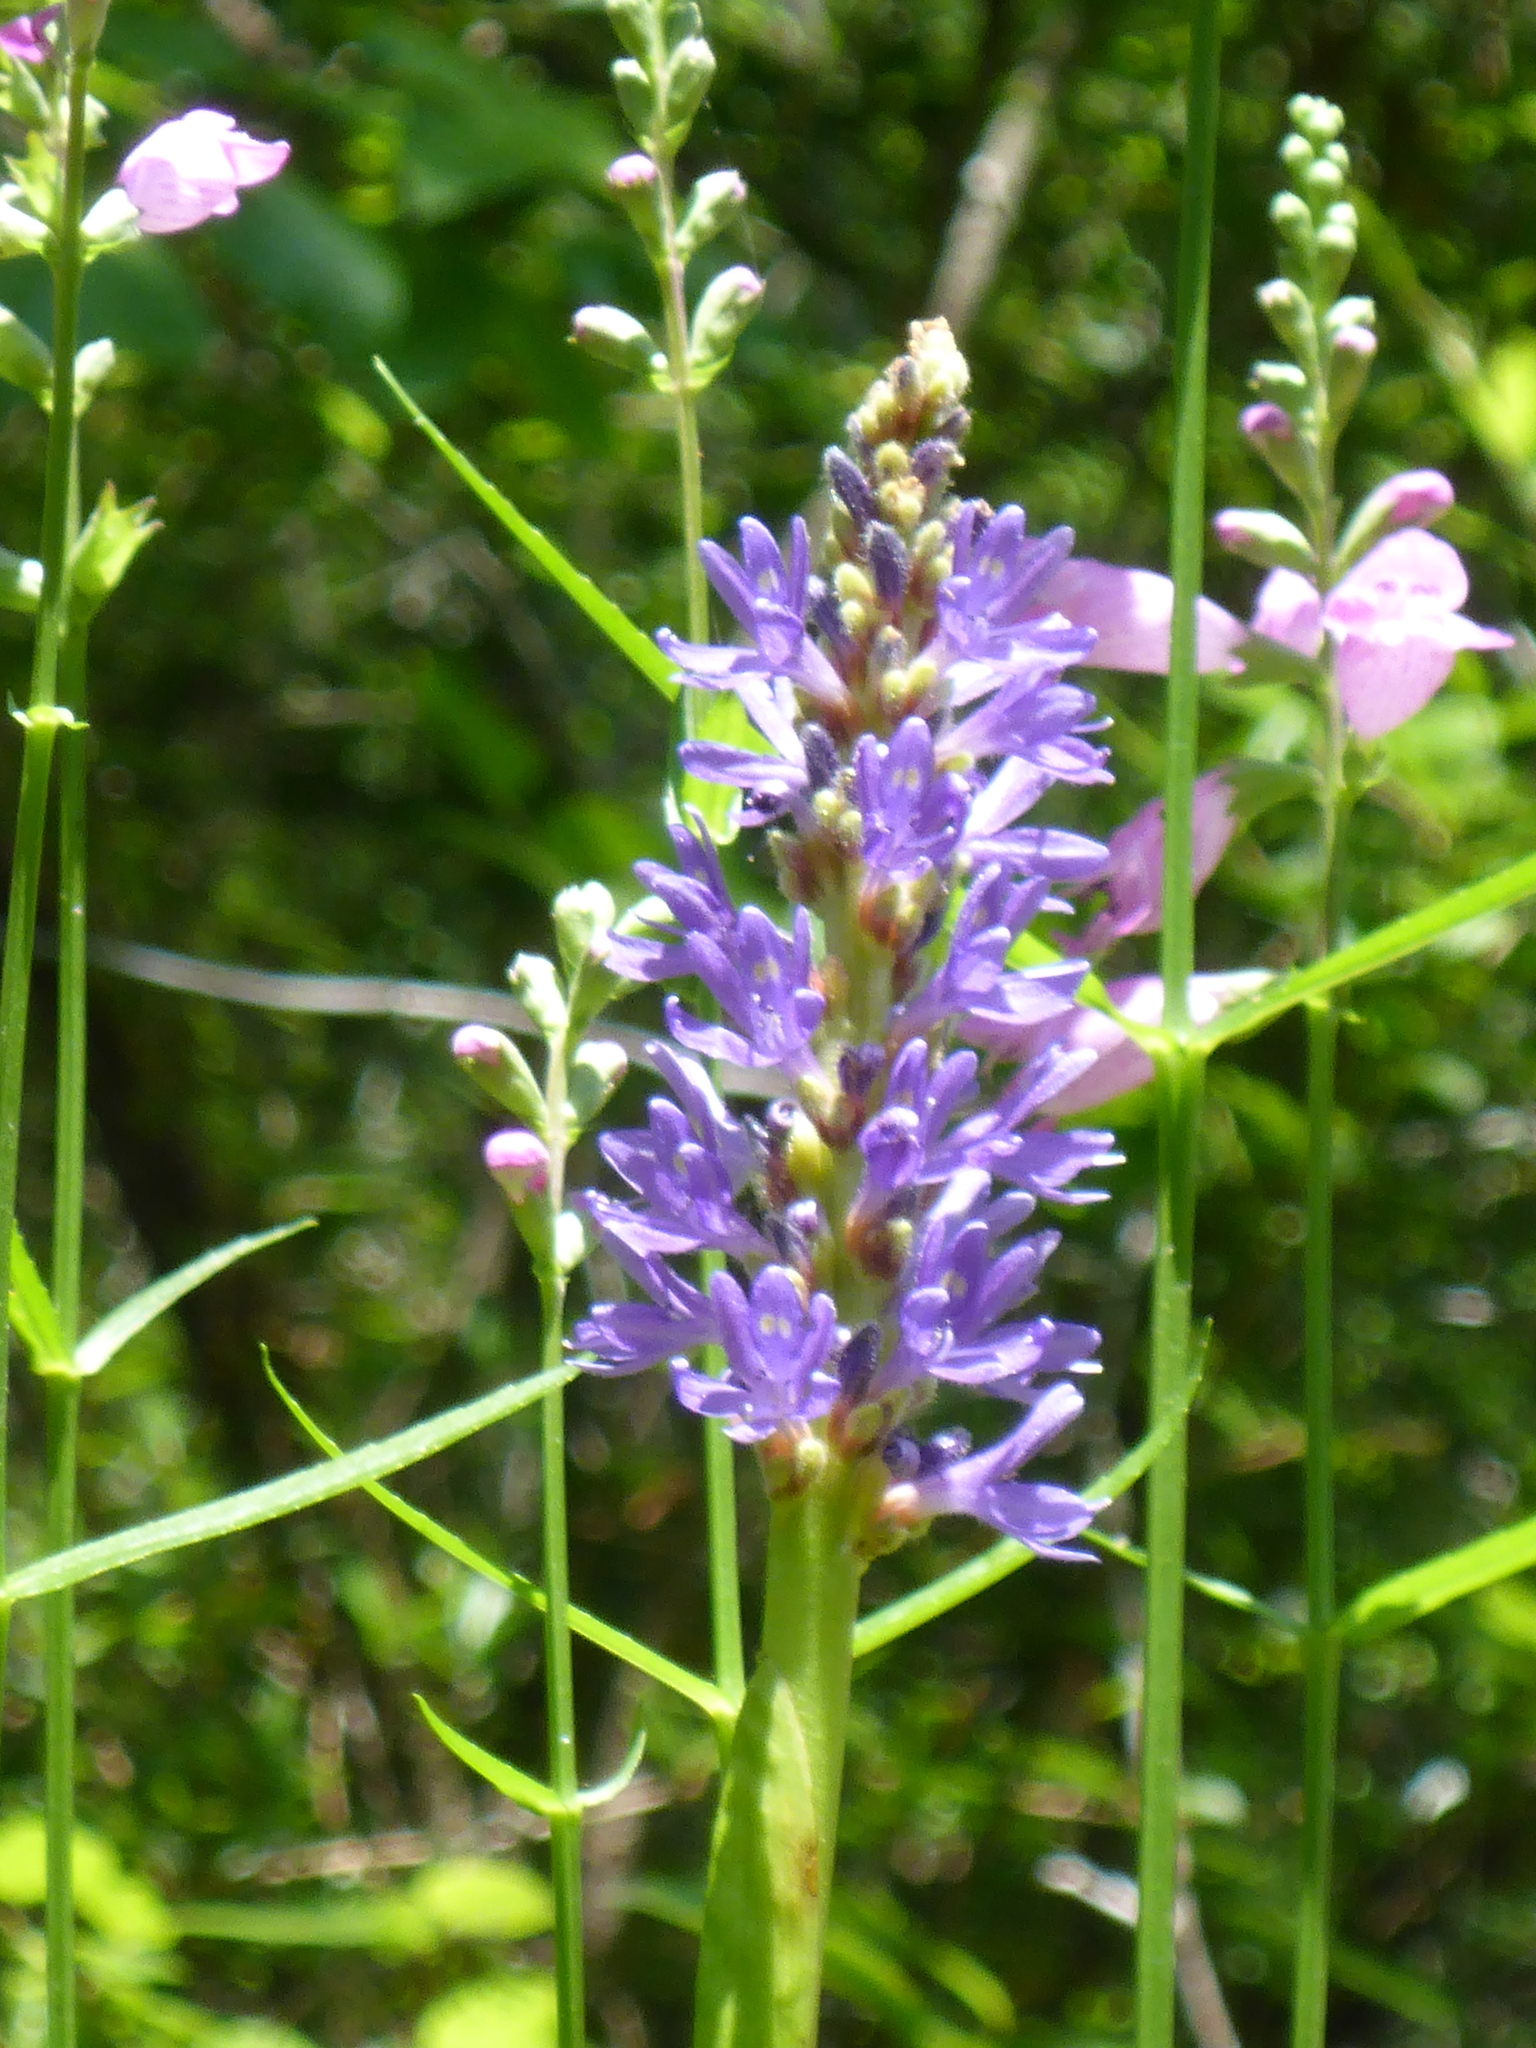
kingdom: Plantae
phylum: Tracheophyta
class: Liliopsida
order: Commelinales
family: Pontederiaceae
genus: Pontederia
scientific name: Pontederia cordata
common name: Pickerelweed
